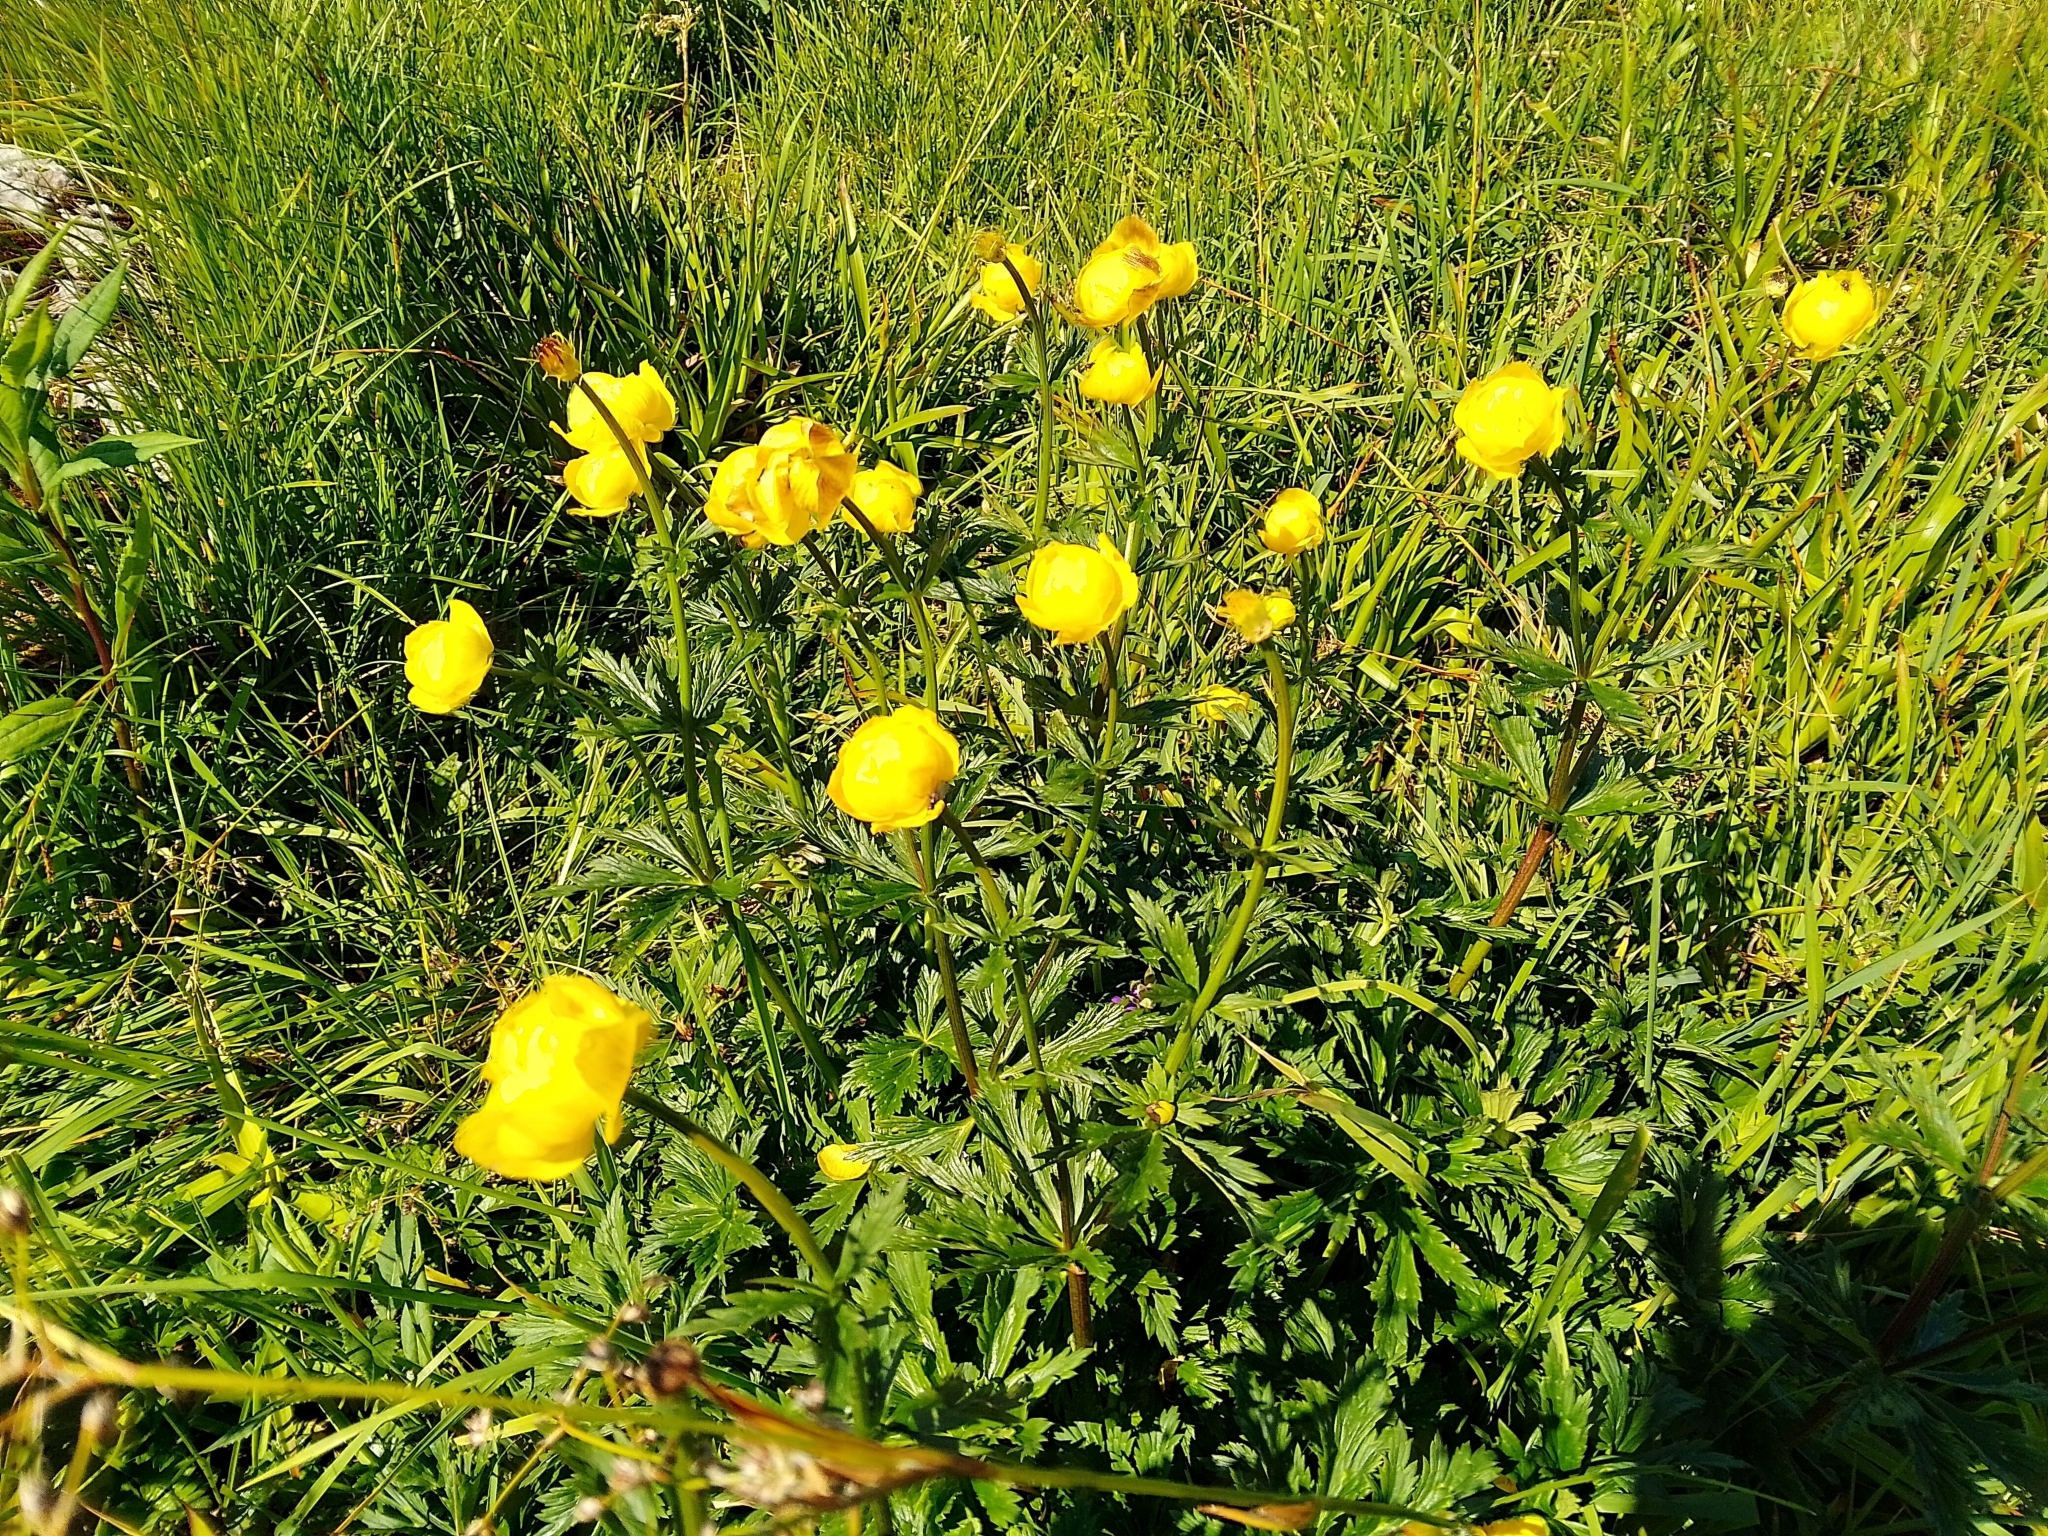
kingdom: Plantae
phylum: Tracheophyta
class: Magnoliopsida
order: Ranunculales
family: Ranunculaceae
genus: Trollius
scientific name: Trollius europaeus
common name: European globeflower
